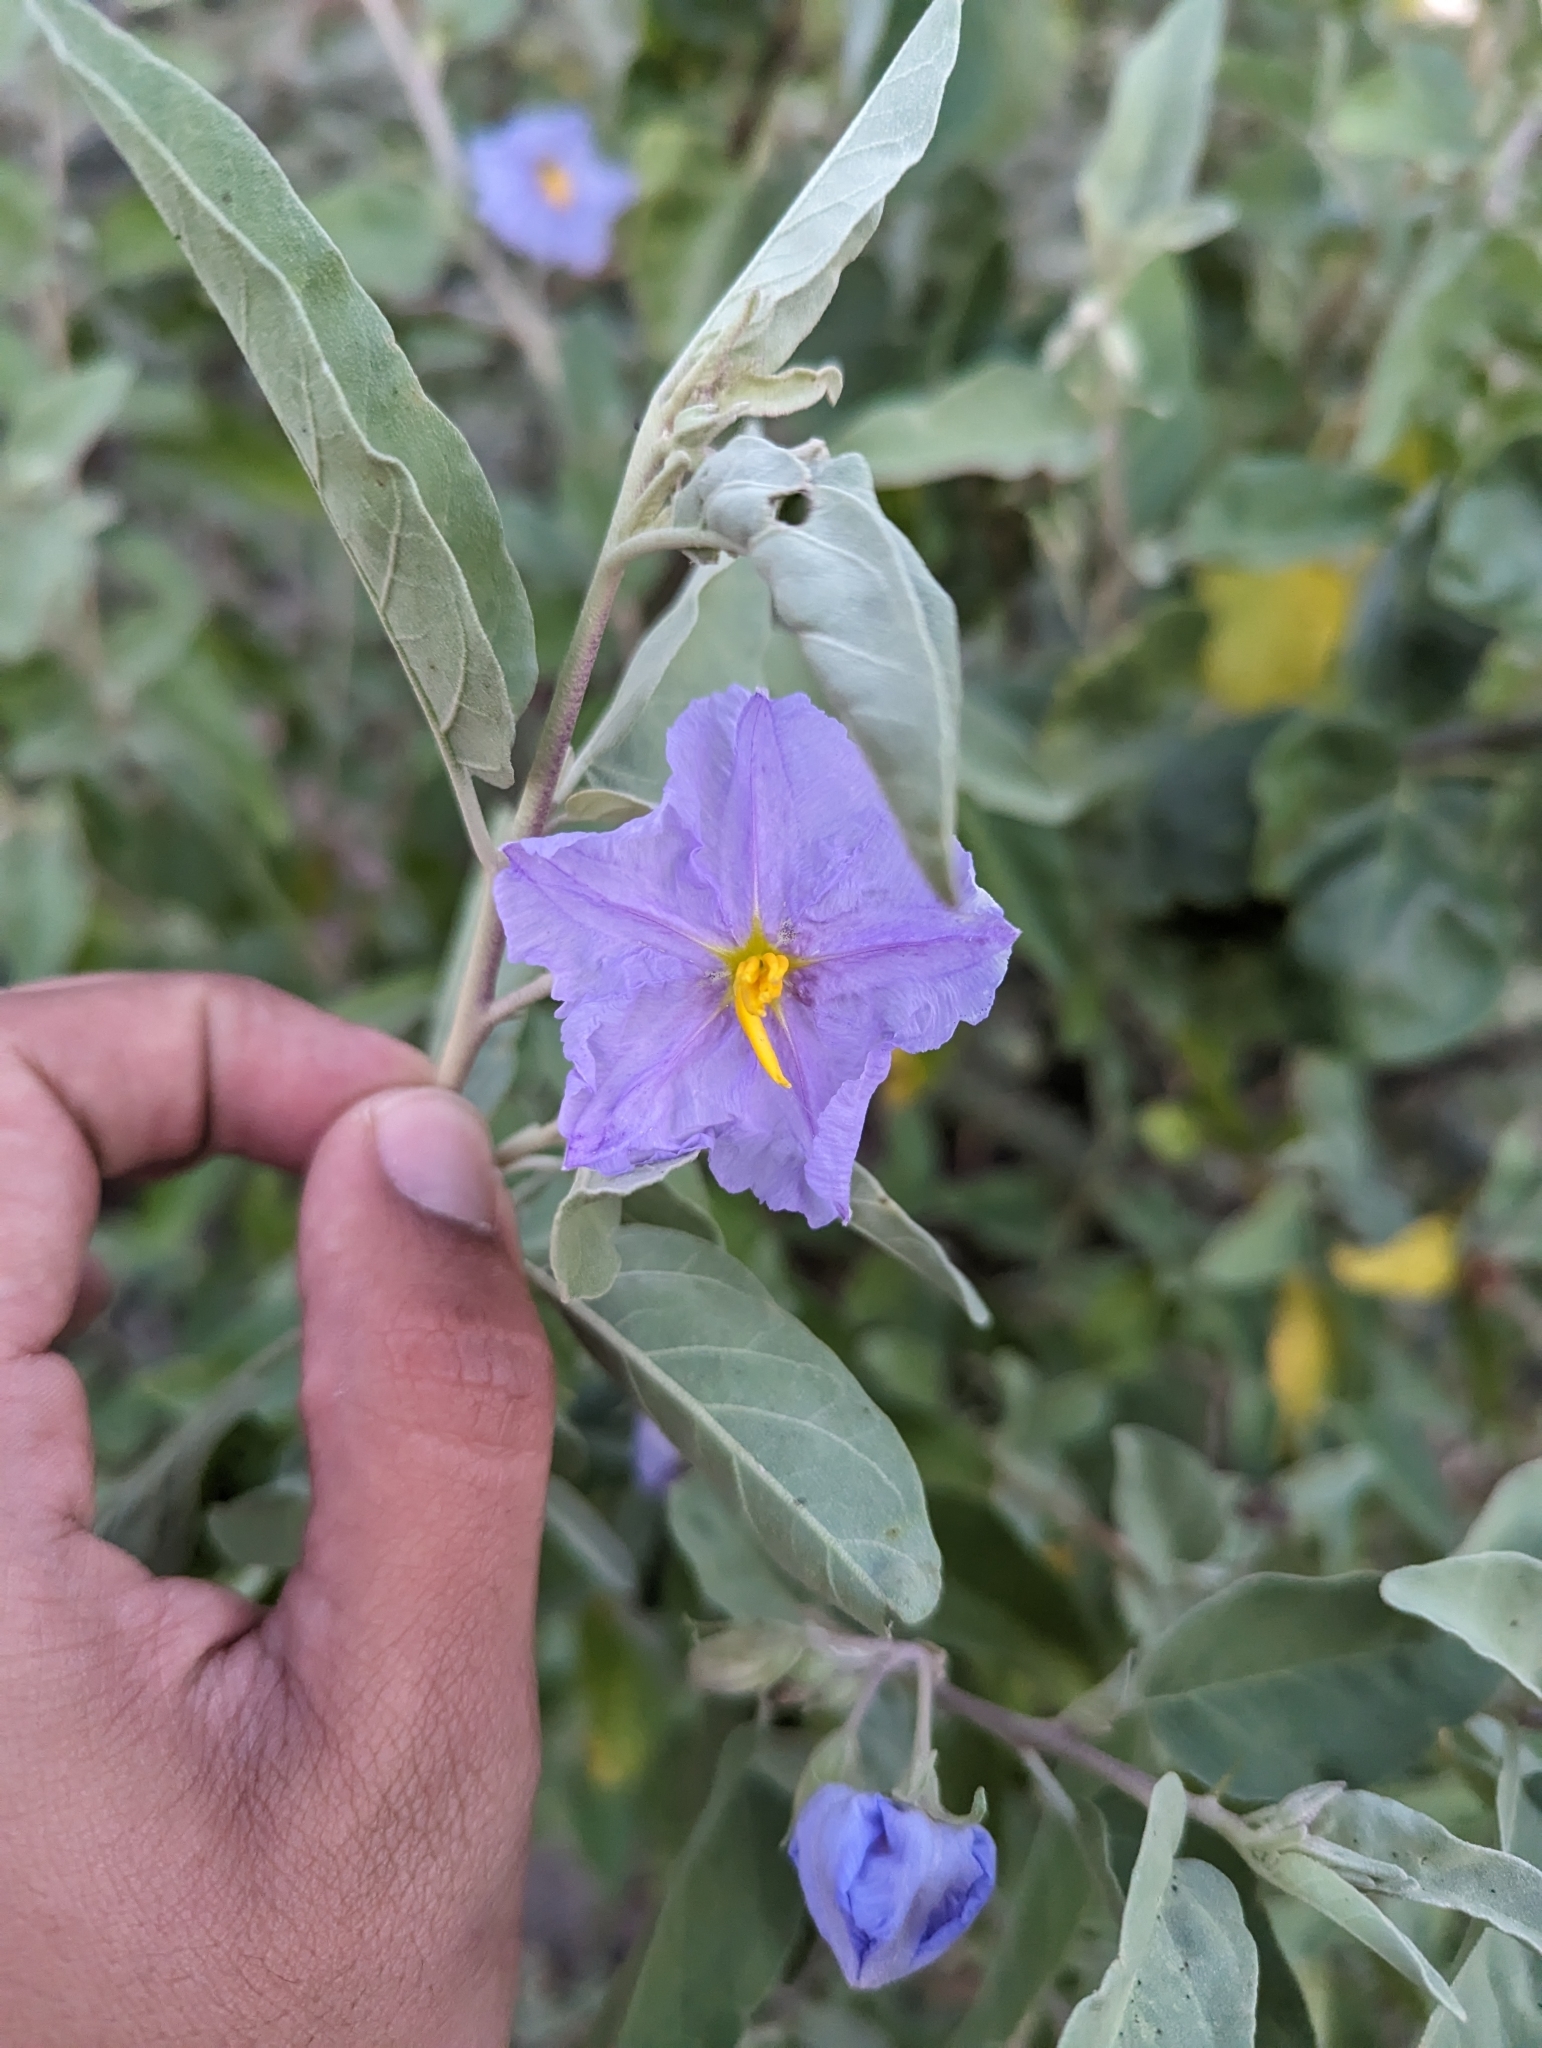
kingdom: Plantae
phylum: Tracheophyta
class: Magnoliopsida
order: Solanales
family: Solanaceae
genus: Solanum
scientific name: Solanum hindsianum
